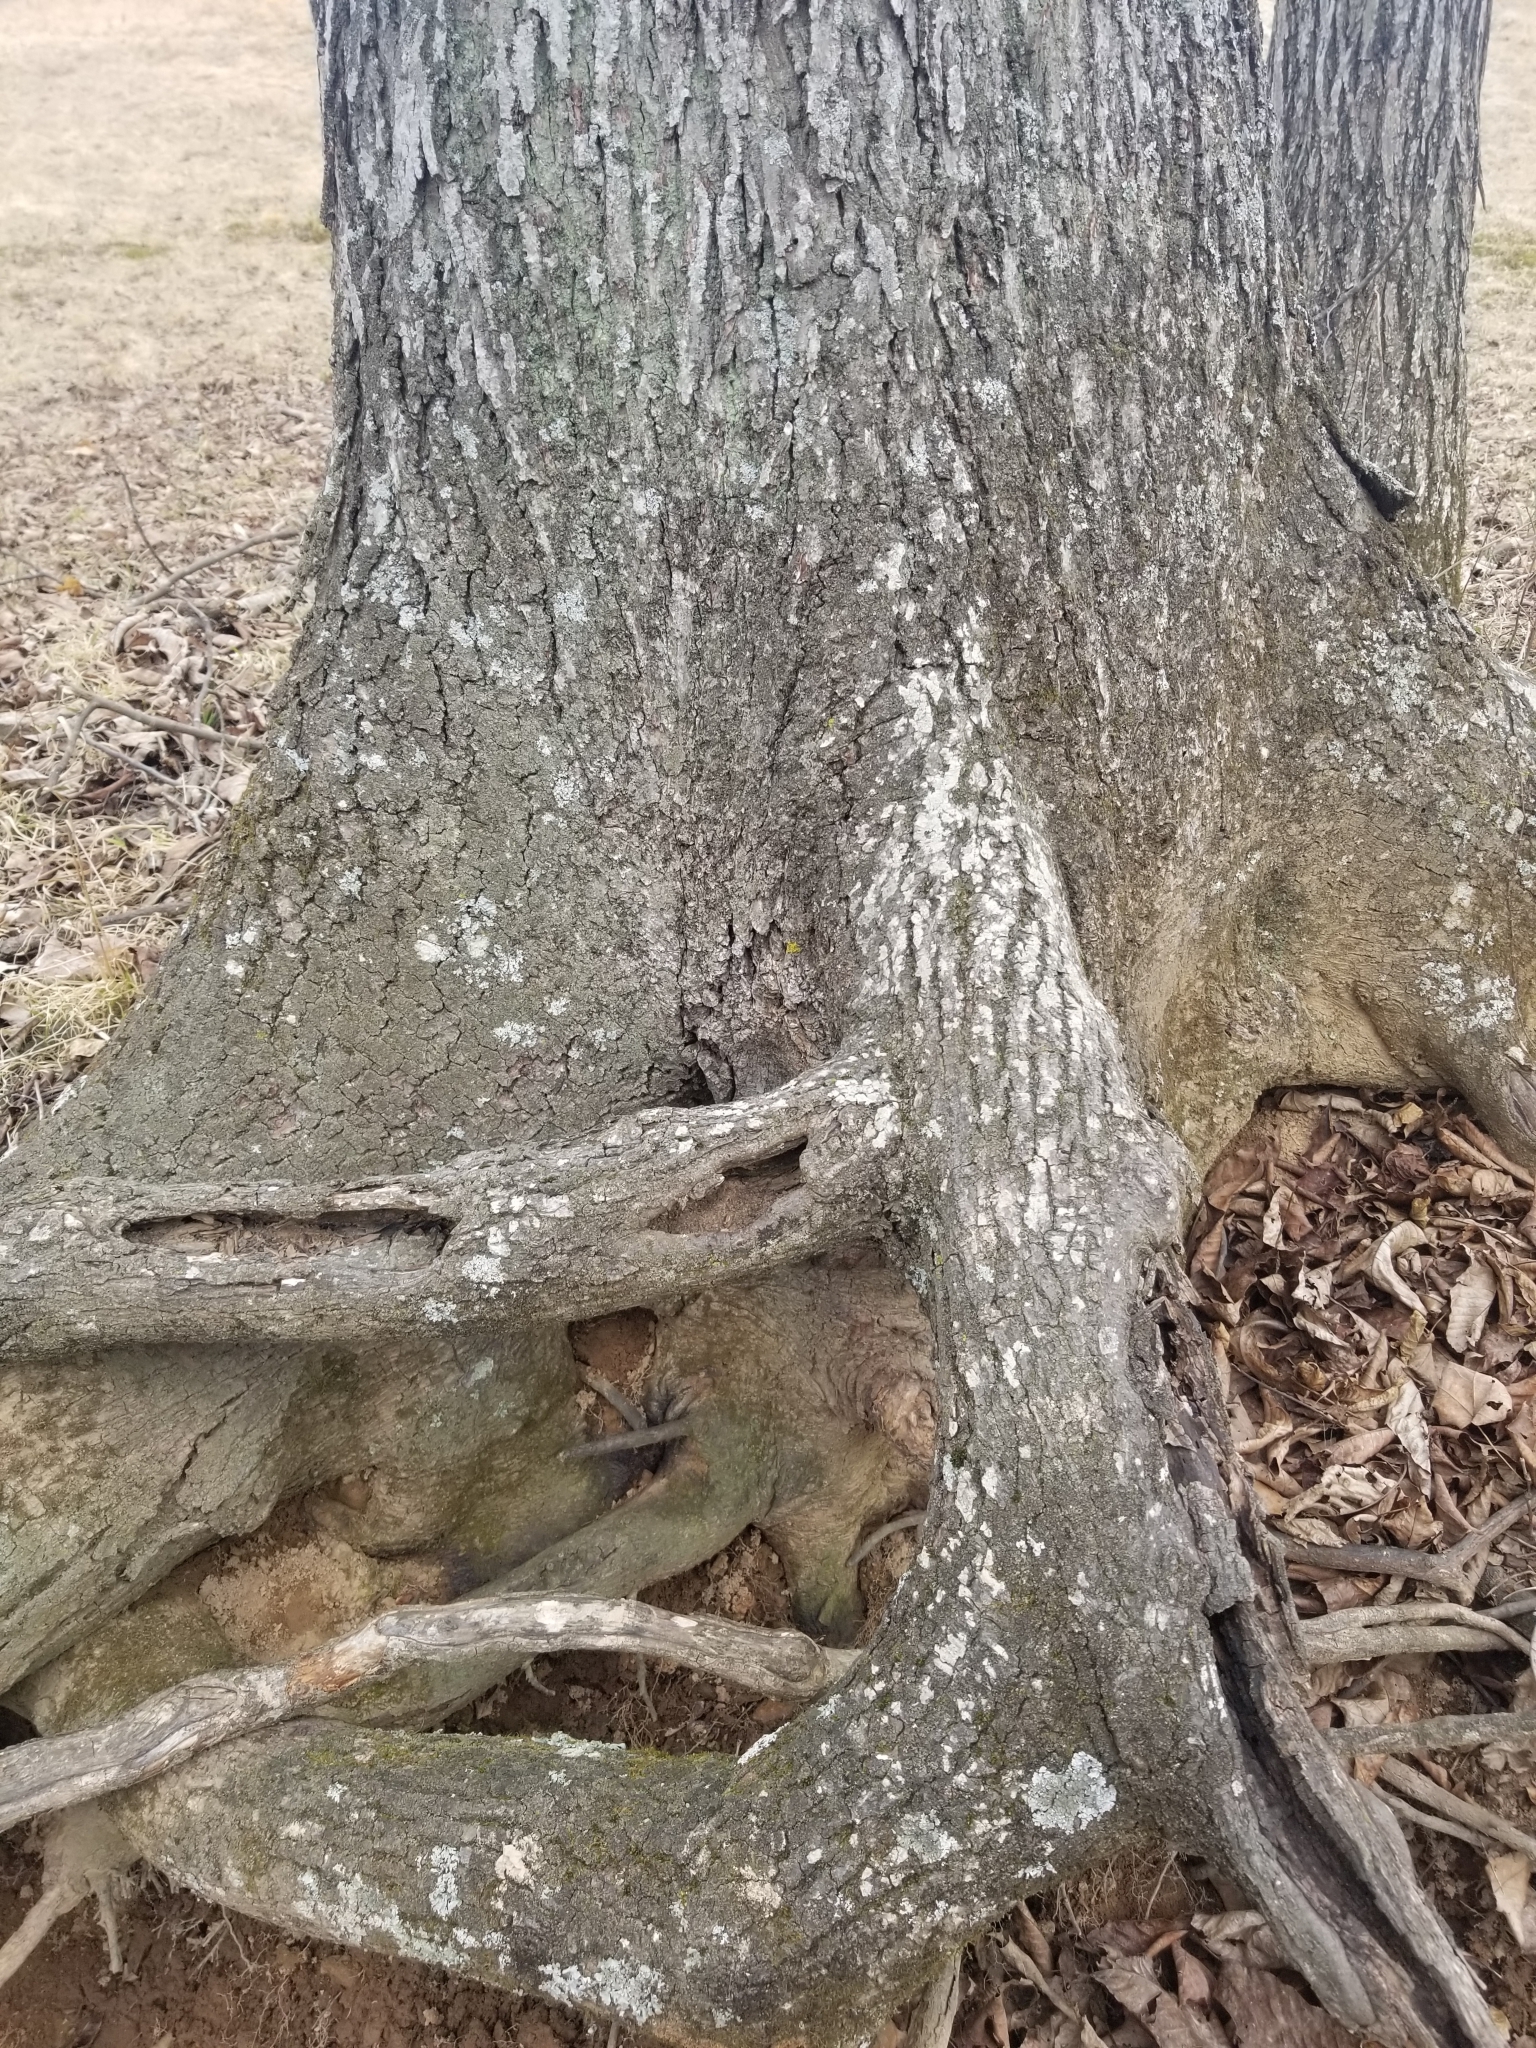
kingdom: Fungi
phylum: Ascomycota
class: Candelariomycetes
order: Candelariales
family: Candelariaceae
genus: Candelaria
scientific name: Candelaria concolor
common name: Candleflame lichen
